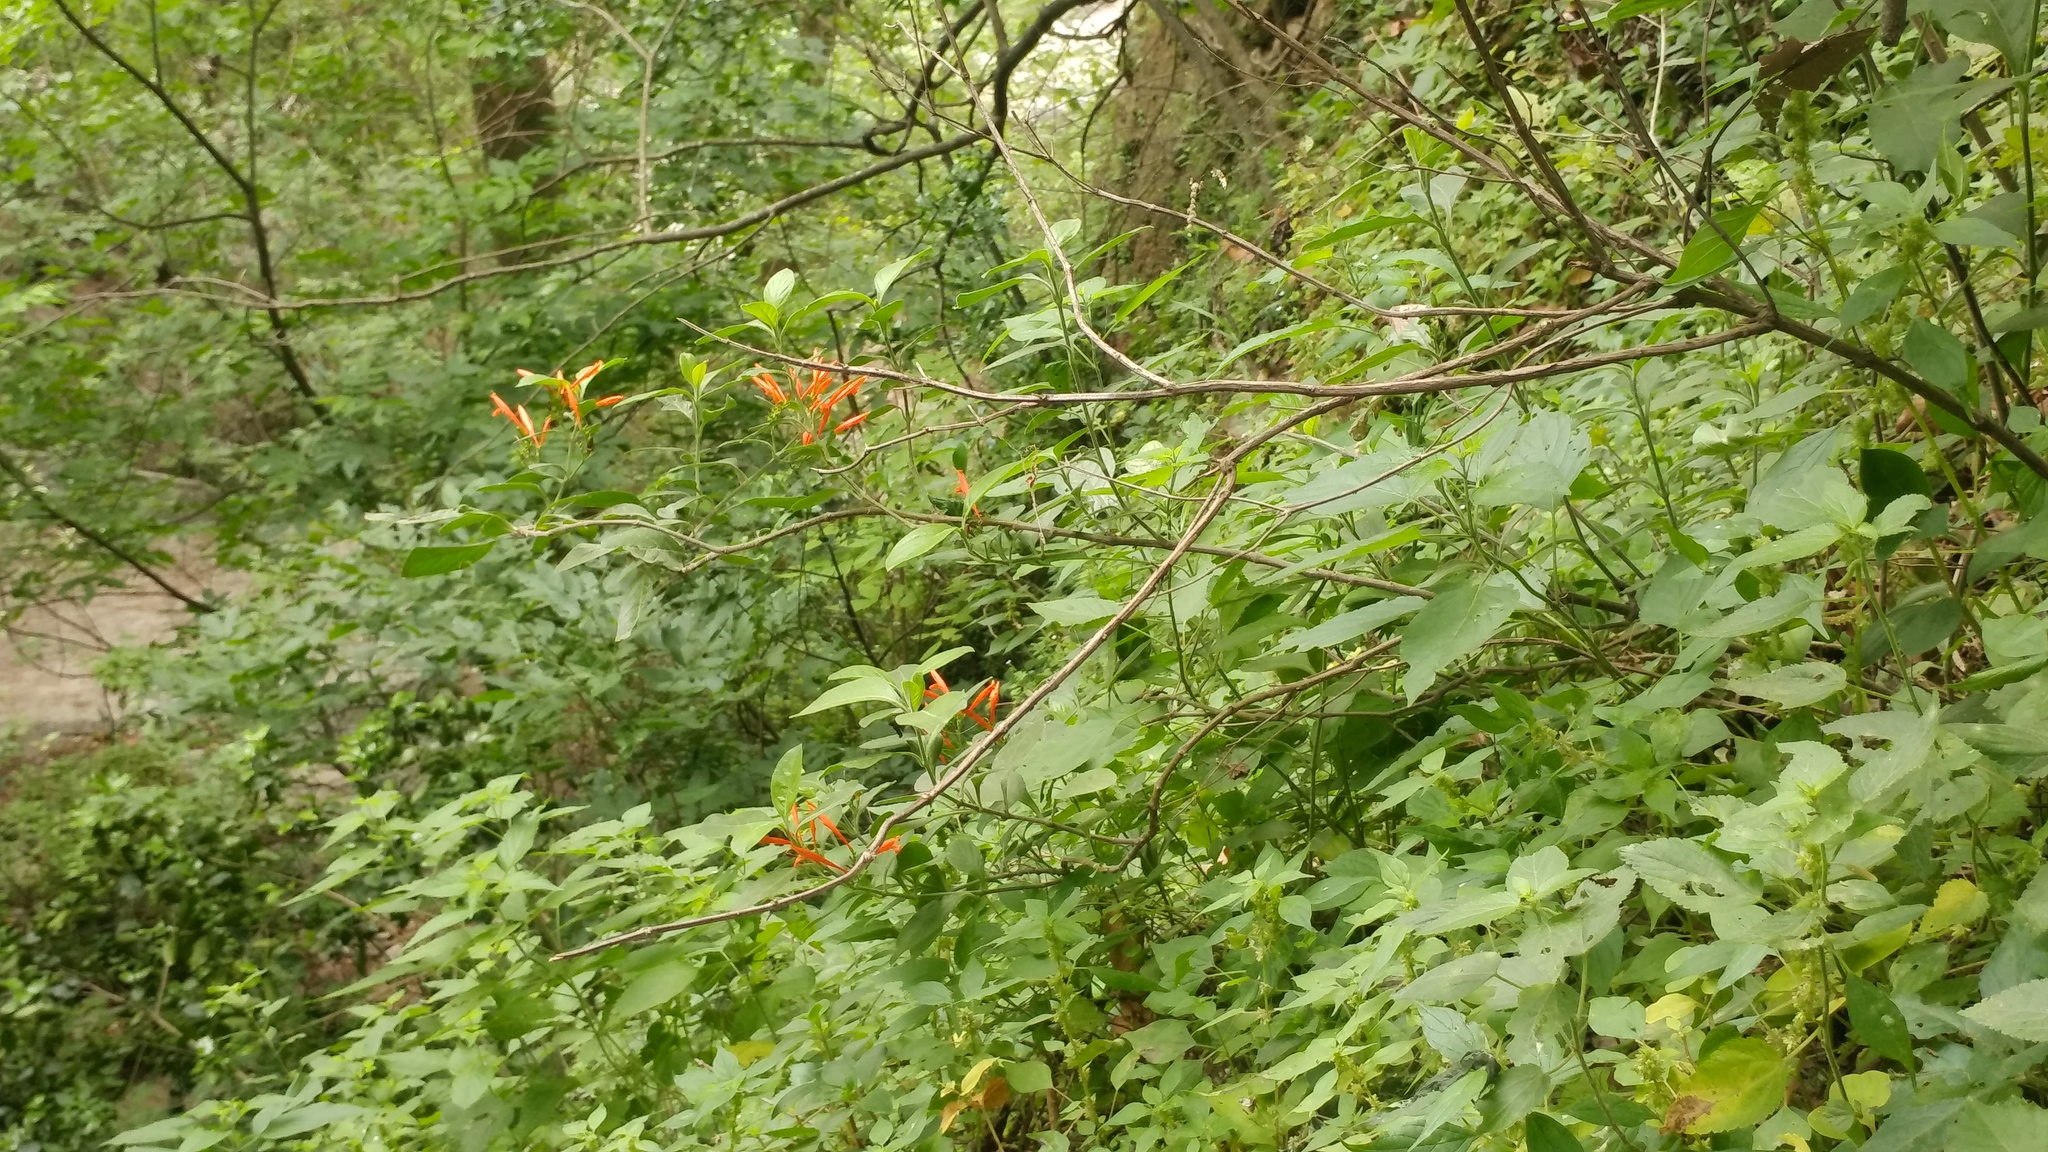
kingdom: Plantae
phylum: Tracheophyta
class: Magnoliopsida
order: Lamiales
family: Acanthaceae
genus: Justicia
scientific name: Justicia spicigera
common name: Mohintli
